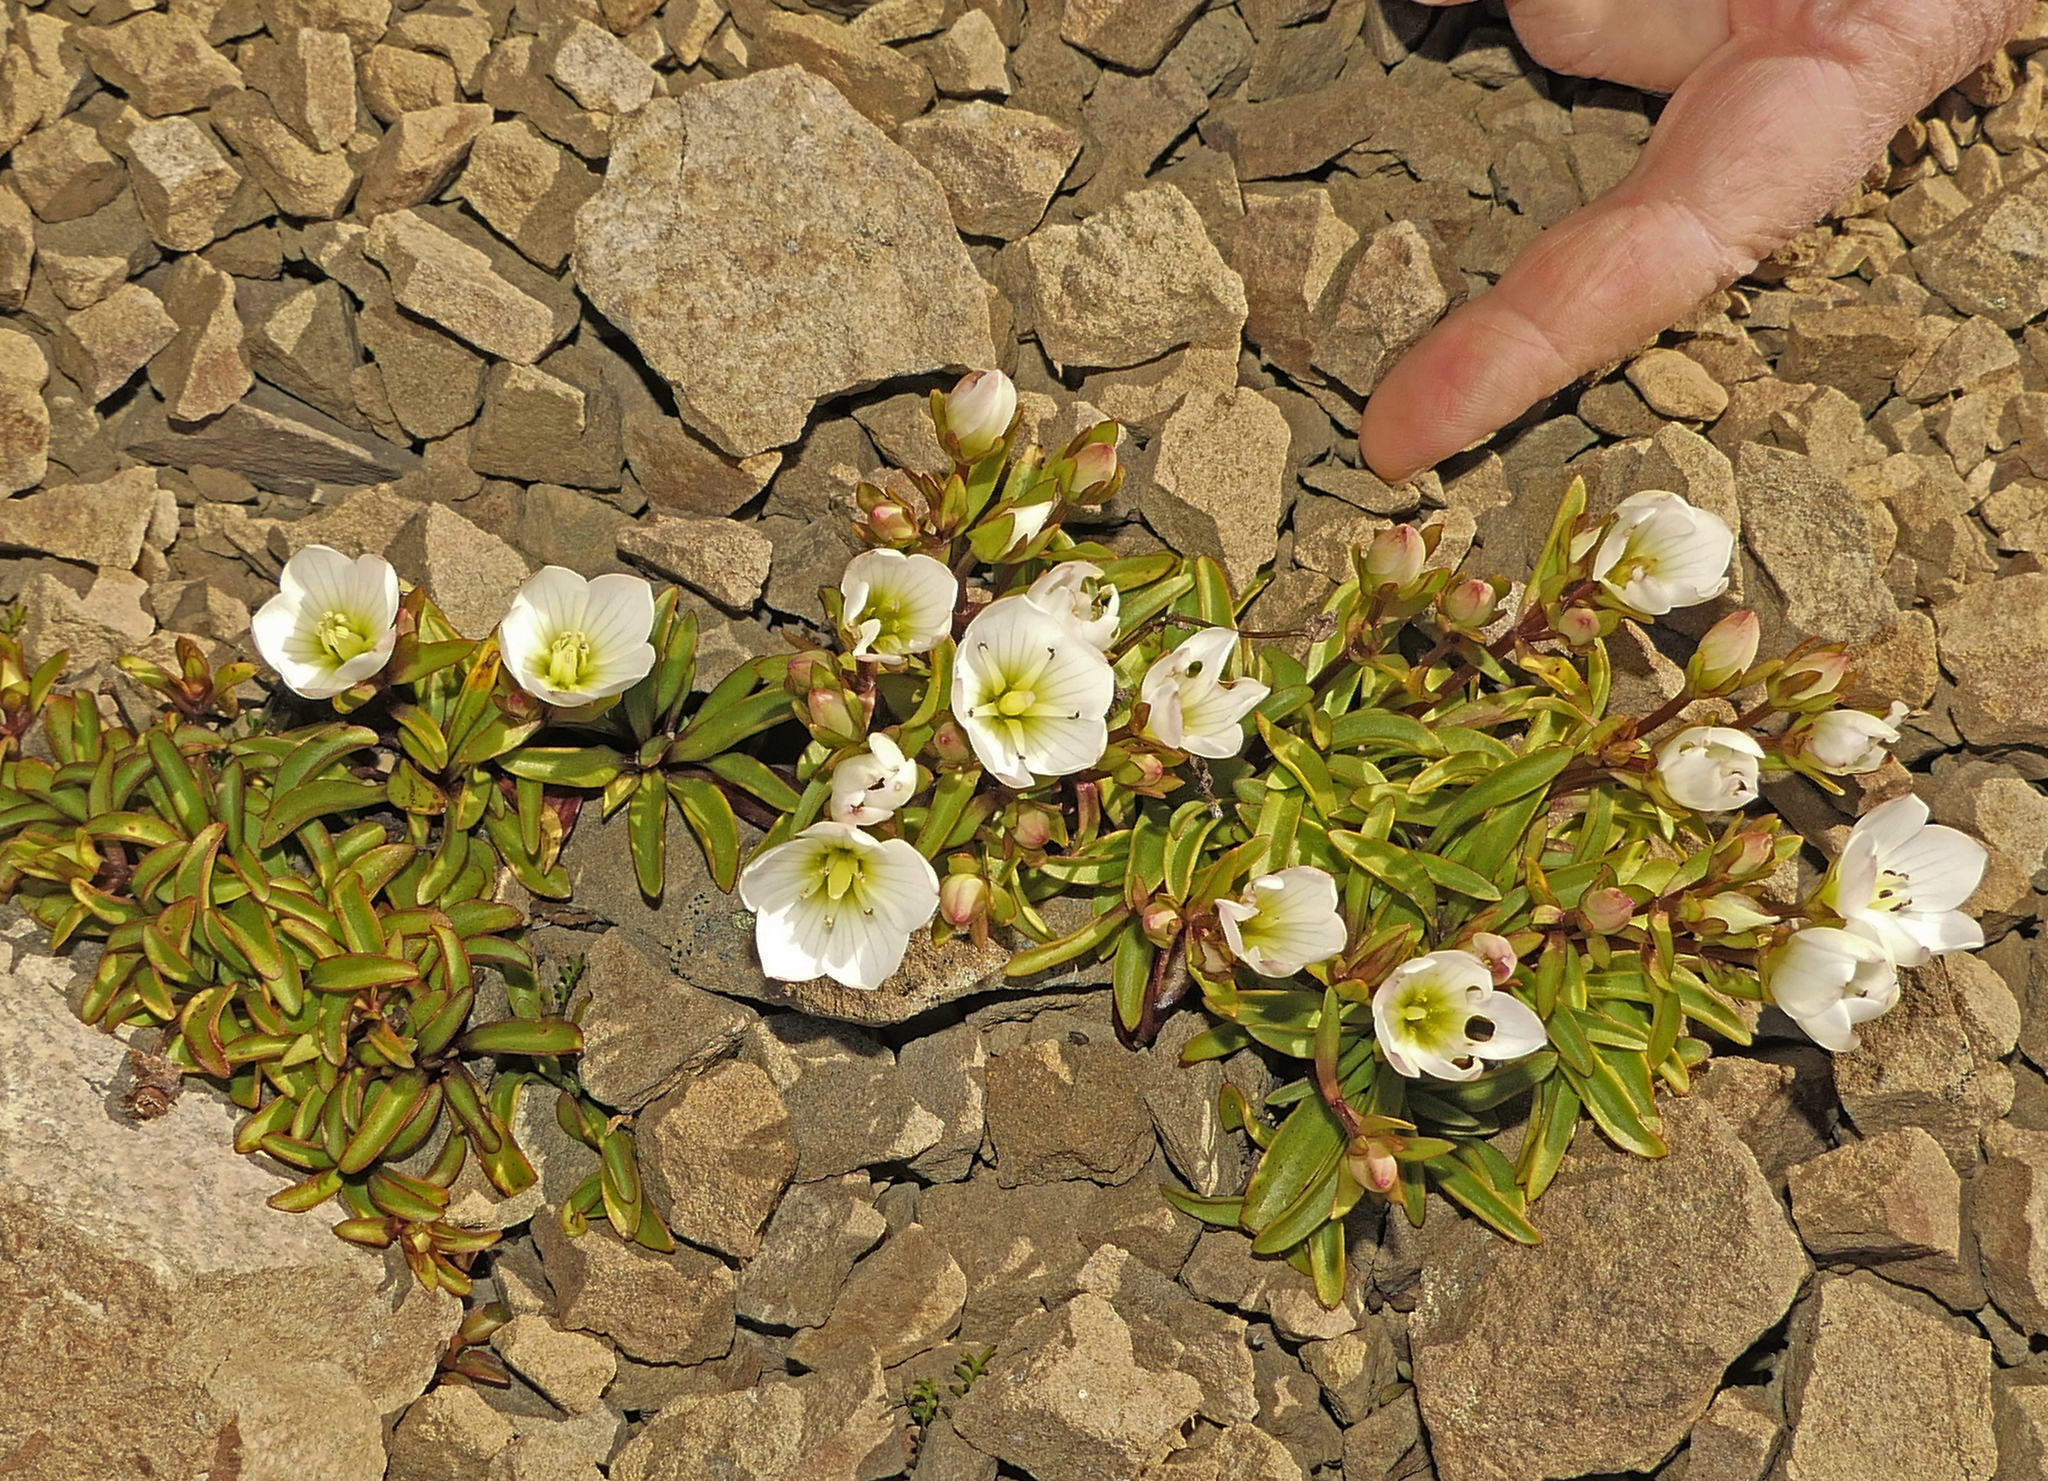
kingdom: Plantae
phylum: Tracheophyta
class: Magnoliopsida
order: Gentianales
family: Gentianaceae
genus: Gentianella
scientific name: Gentianella bellidifolia
